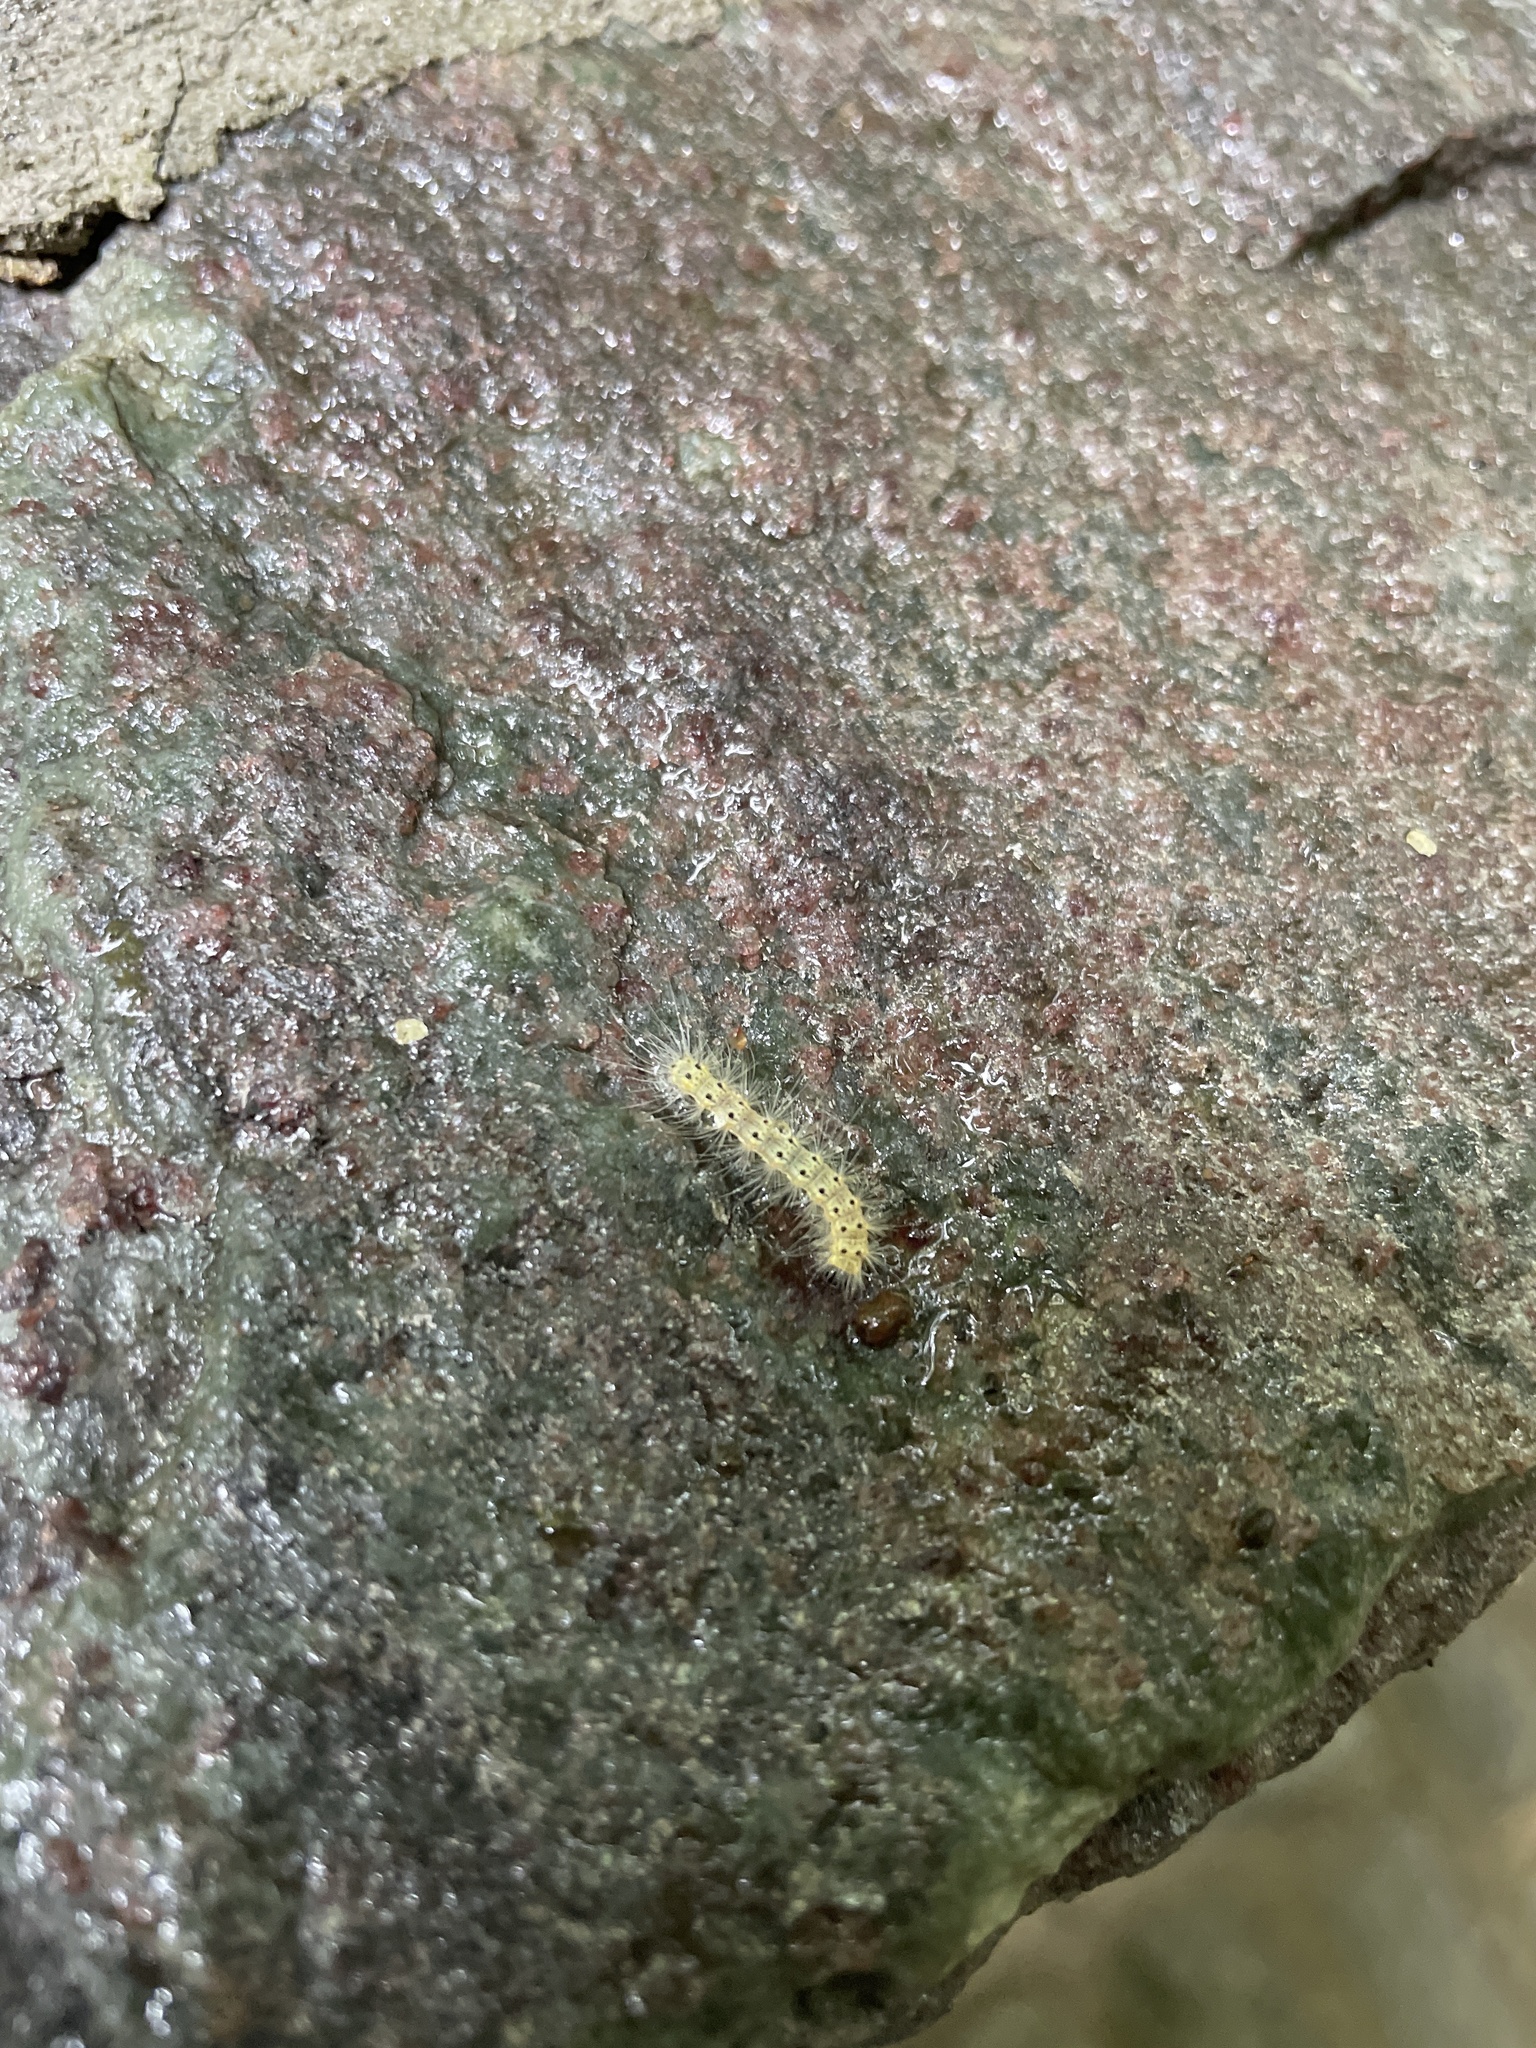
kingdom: Animalia
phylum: Arthropoda
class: Insecta
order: Lepidoptera
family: Erebidae
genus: Hyphantria
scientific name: Hyphantria cunea
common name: American white moth
